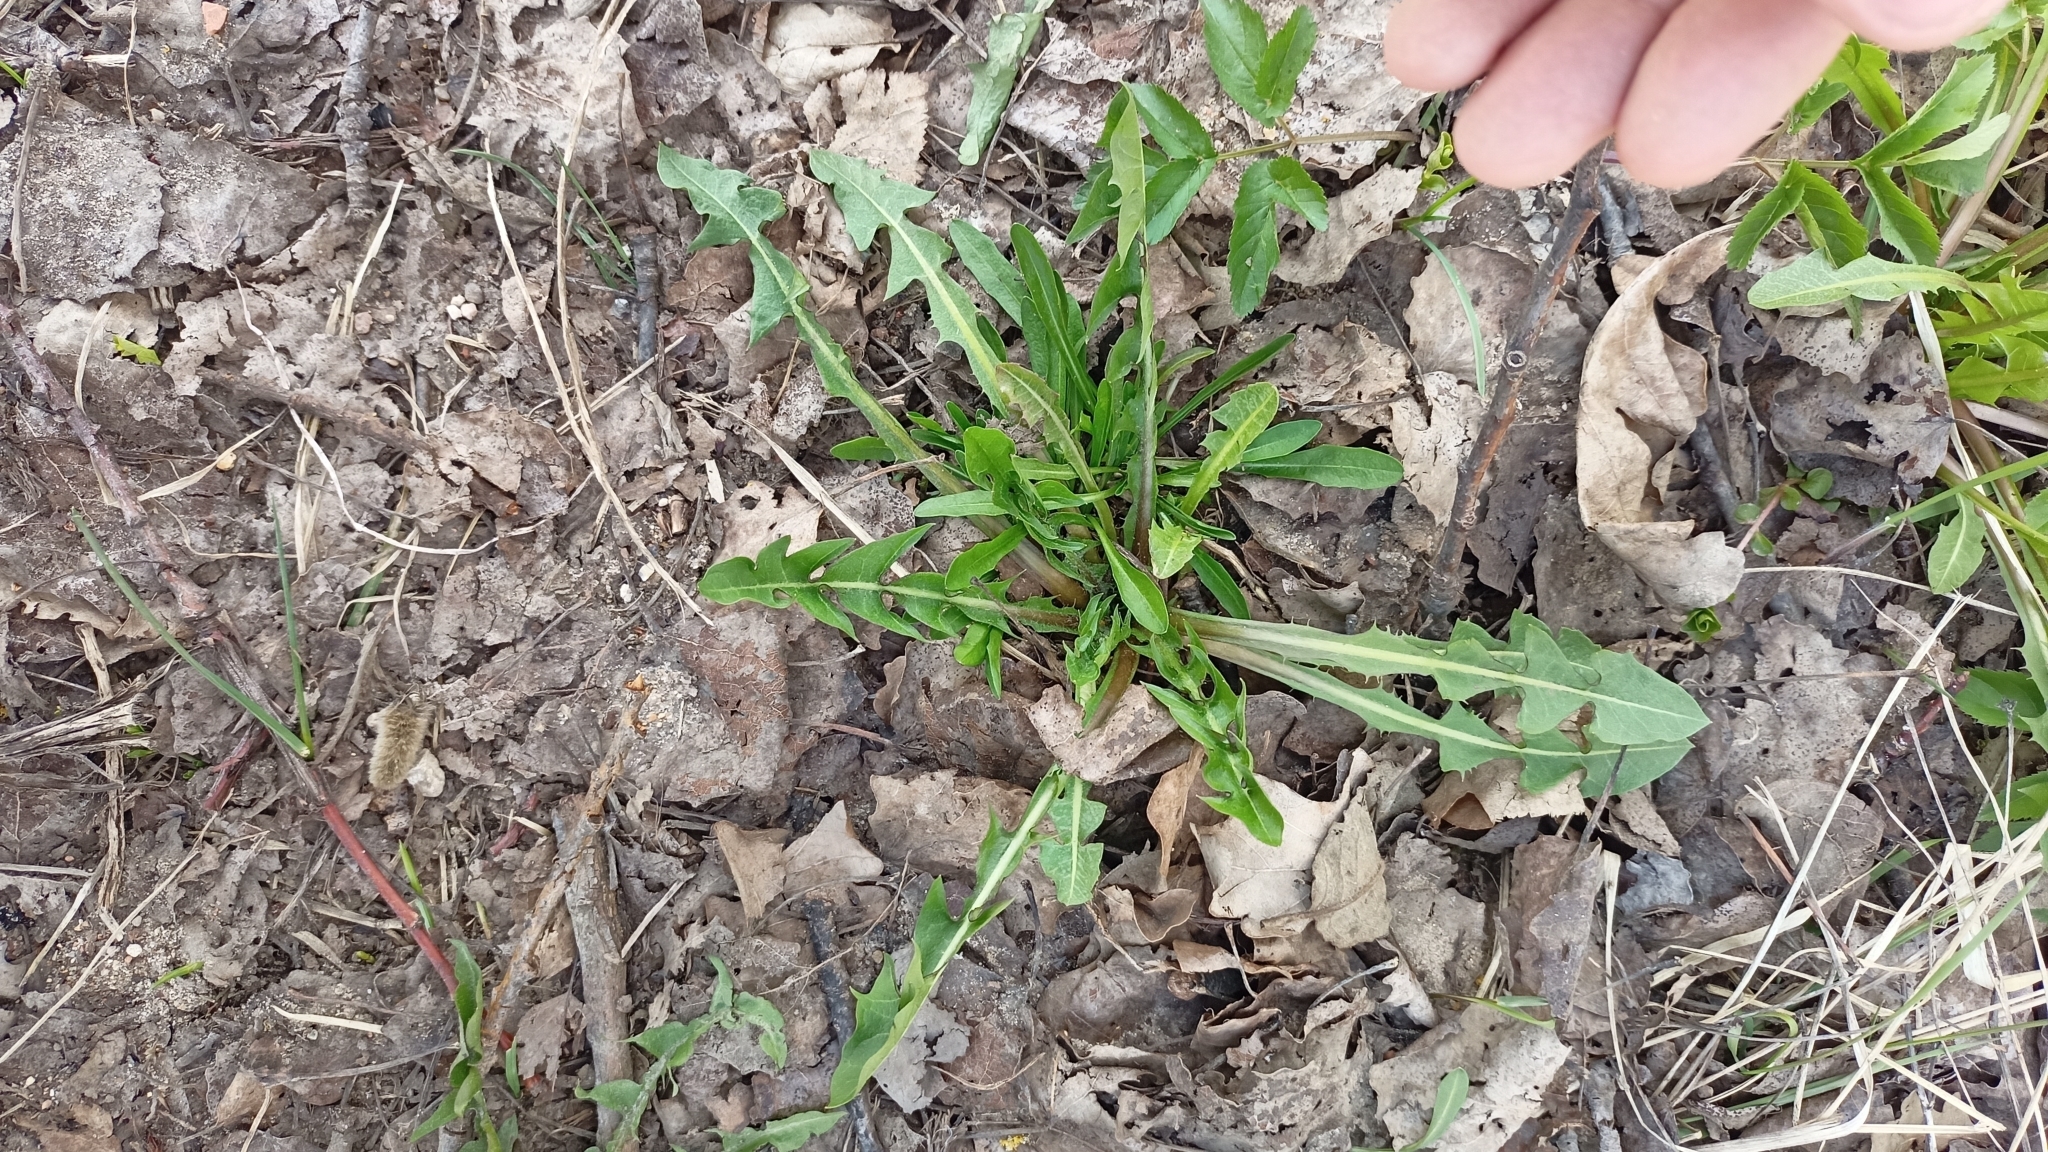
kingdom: Plantae
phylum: Tracheophyta
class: Magnoliopsida
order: Asterales
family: Asteraceae
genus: Taraxacum
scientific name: Taraxacum officinale
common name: Common dandelion
